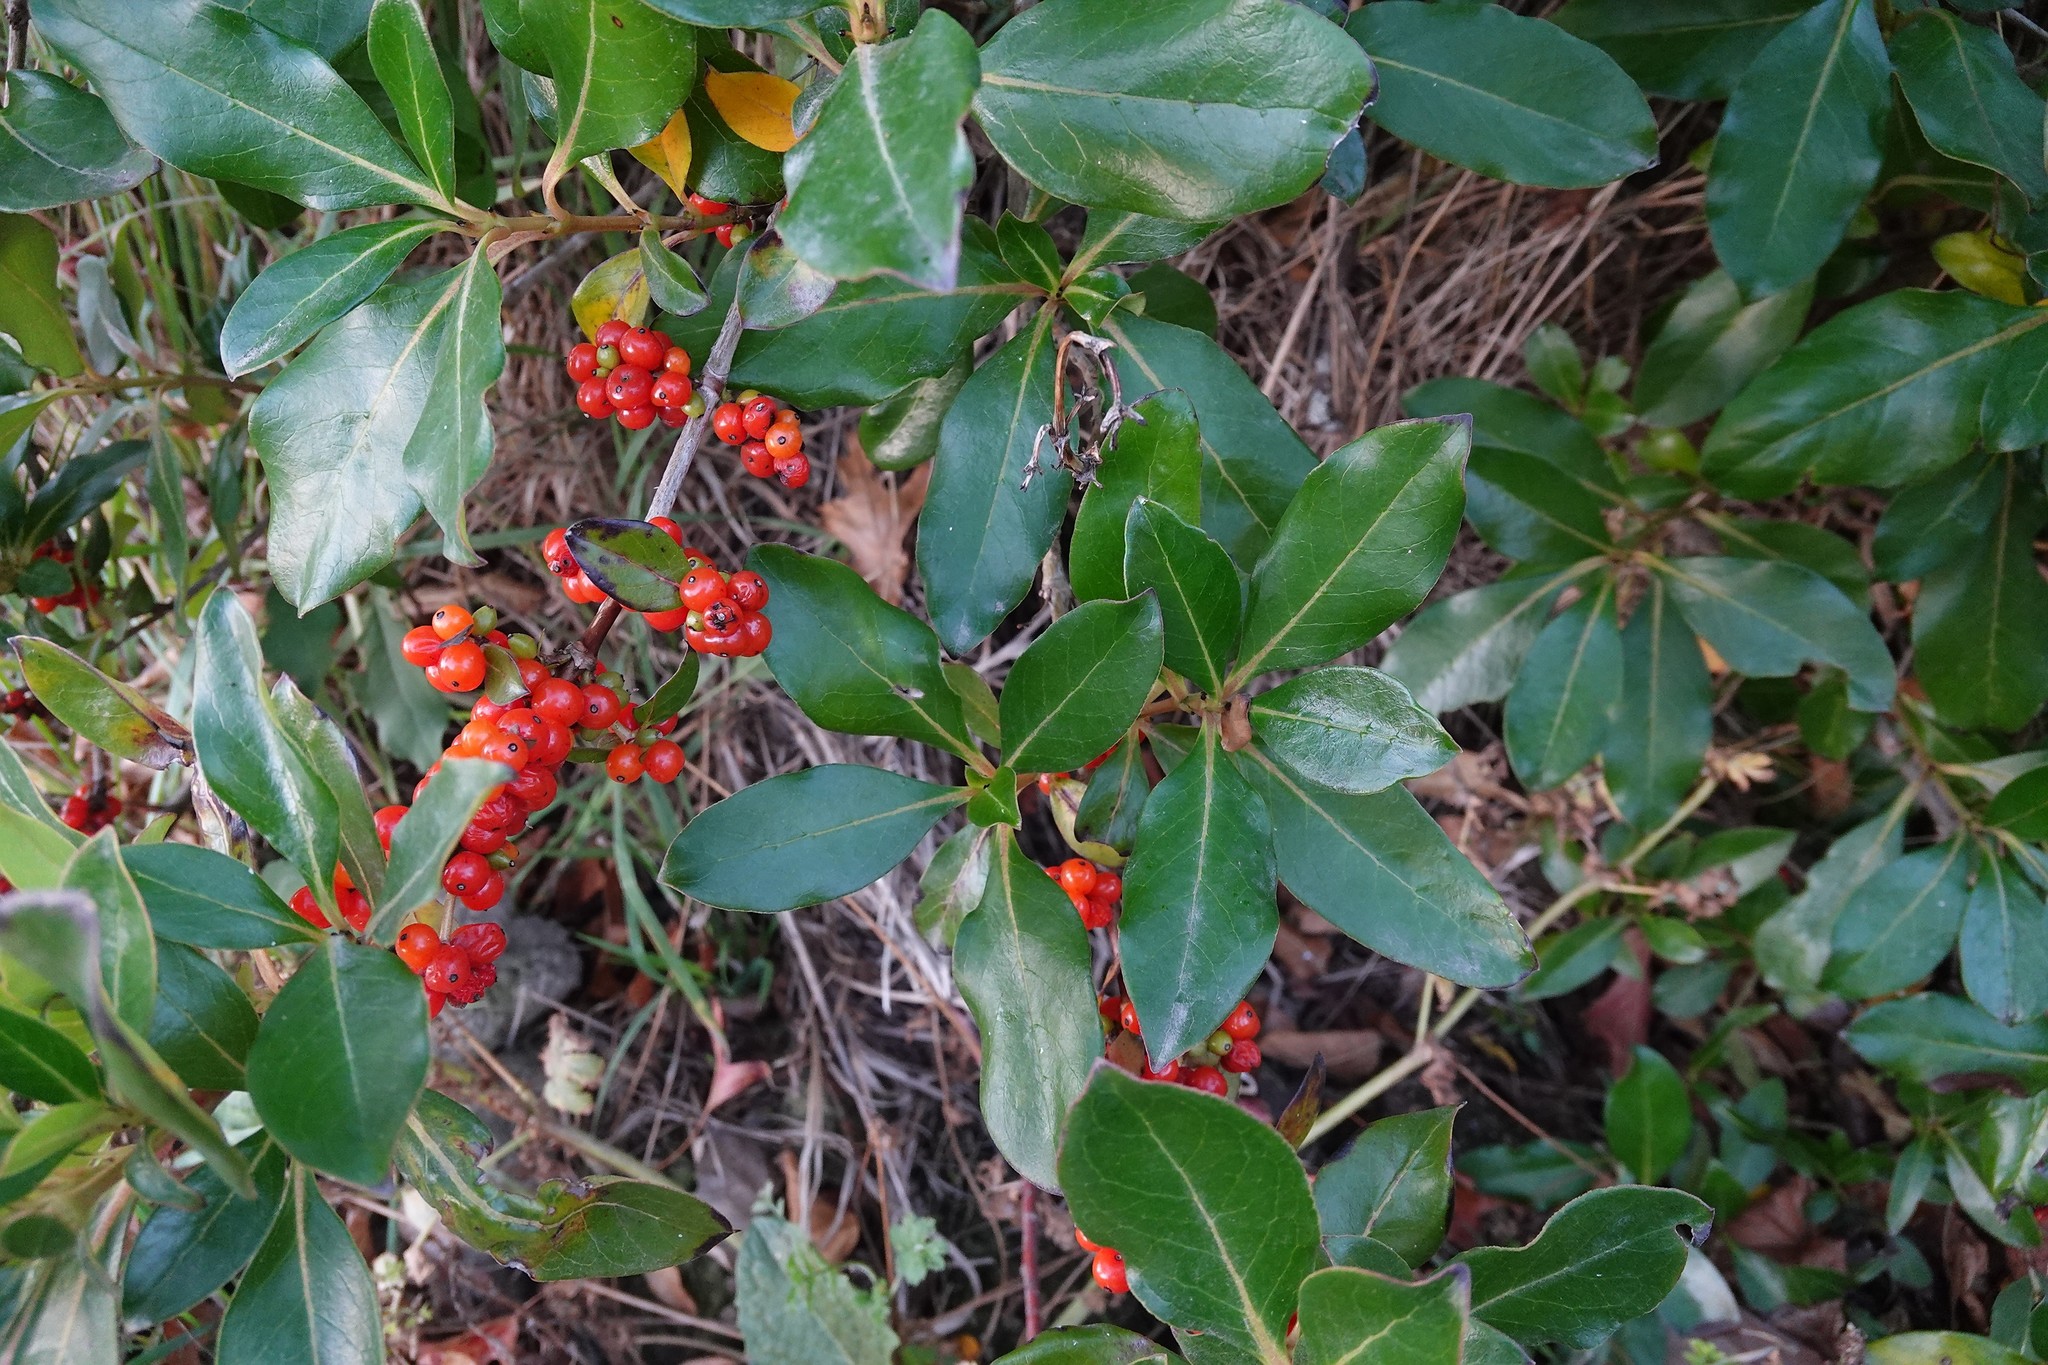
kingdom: Plantae
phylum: Tracheophyta
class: Magnoliopsida
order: Gentianales
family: Rubiaceae
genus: Coprosma
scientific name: Coprosma robusta
